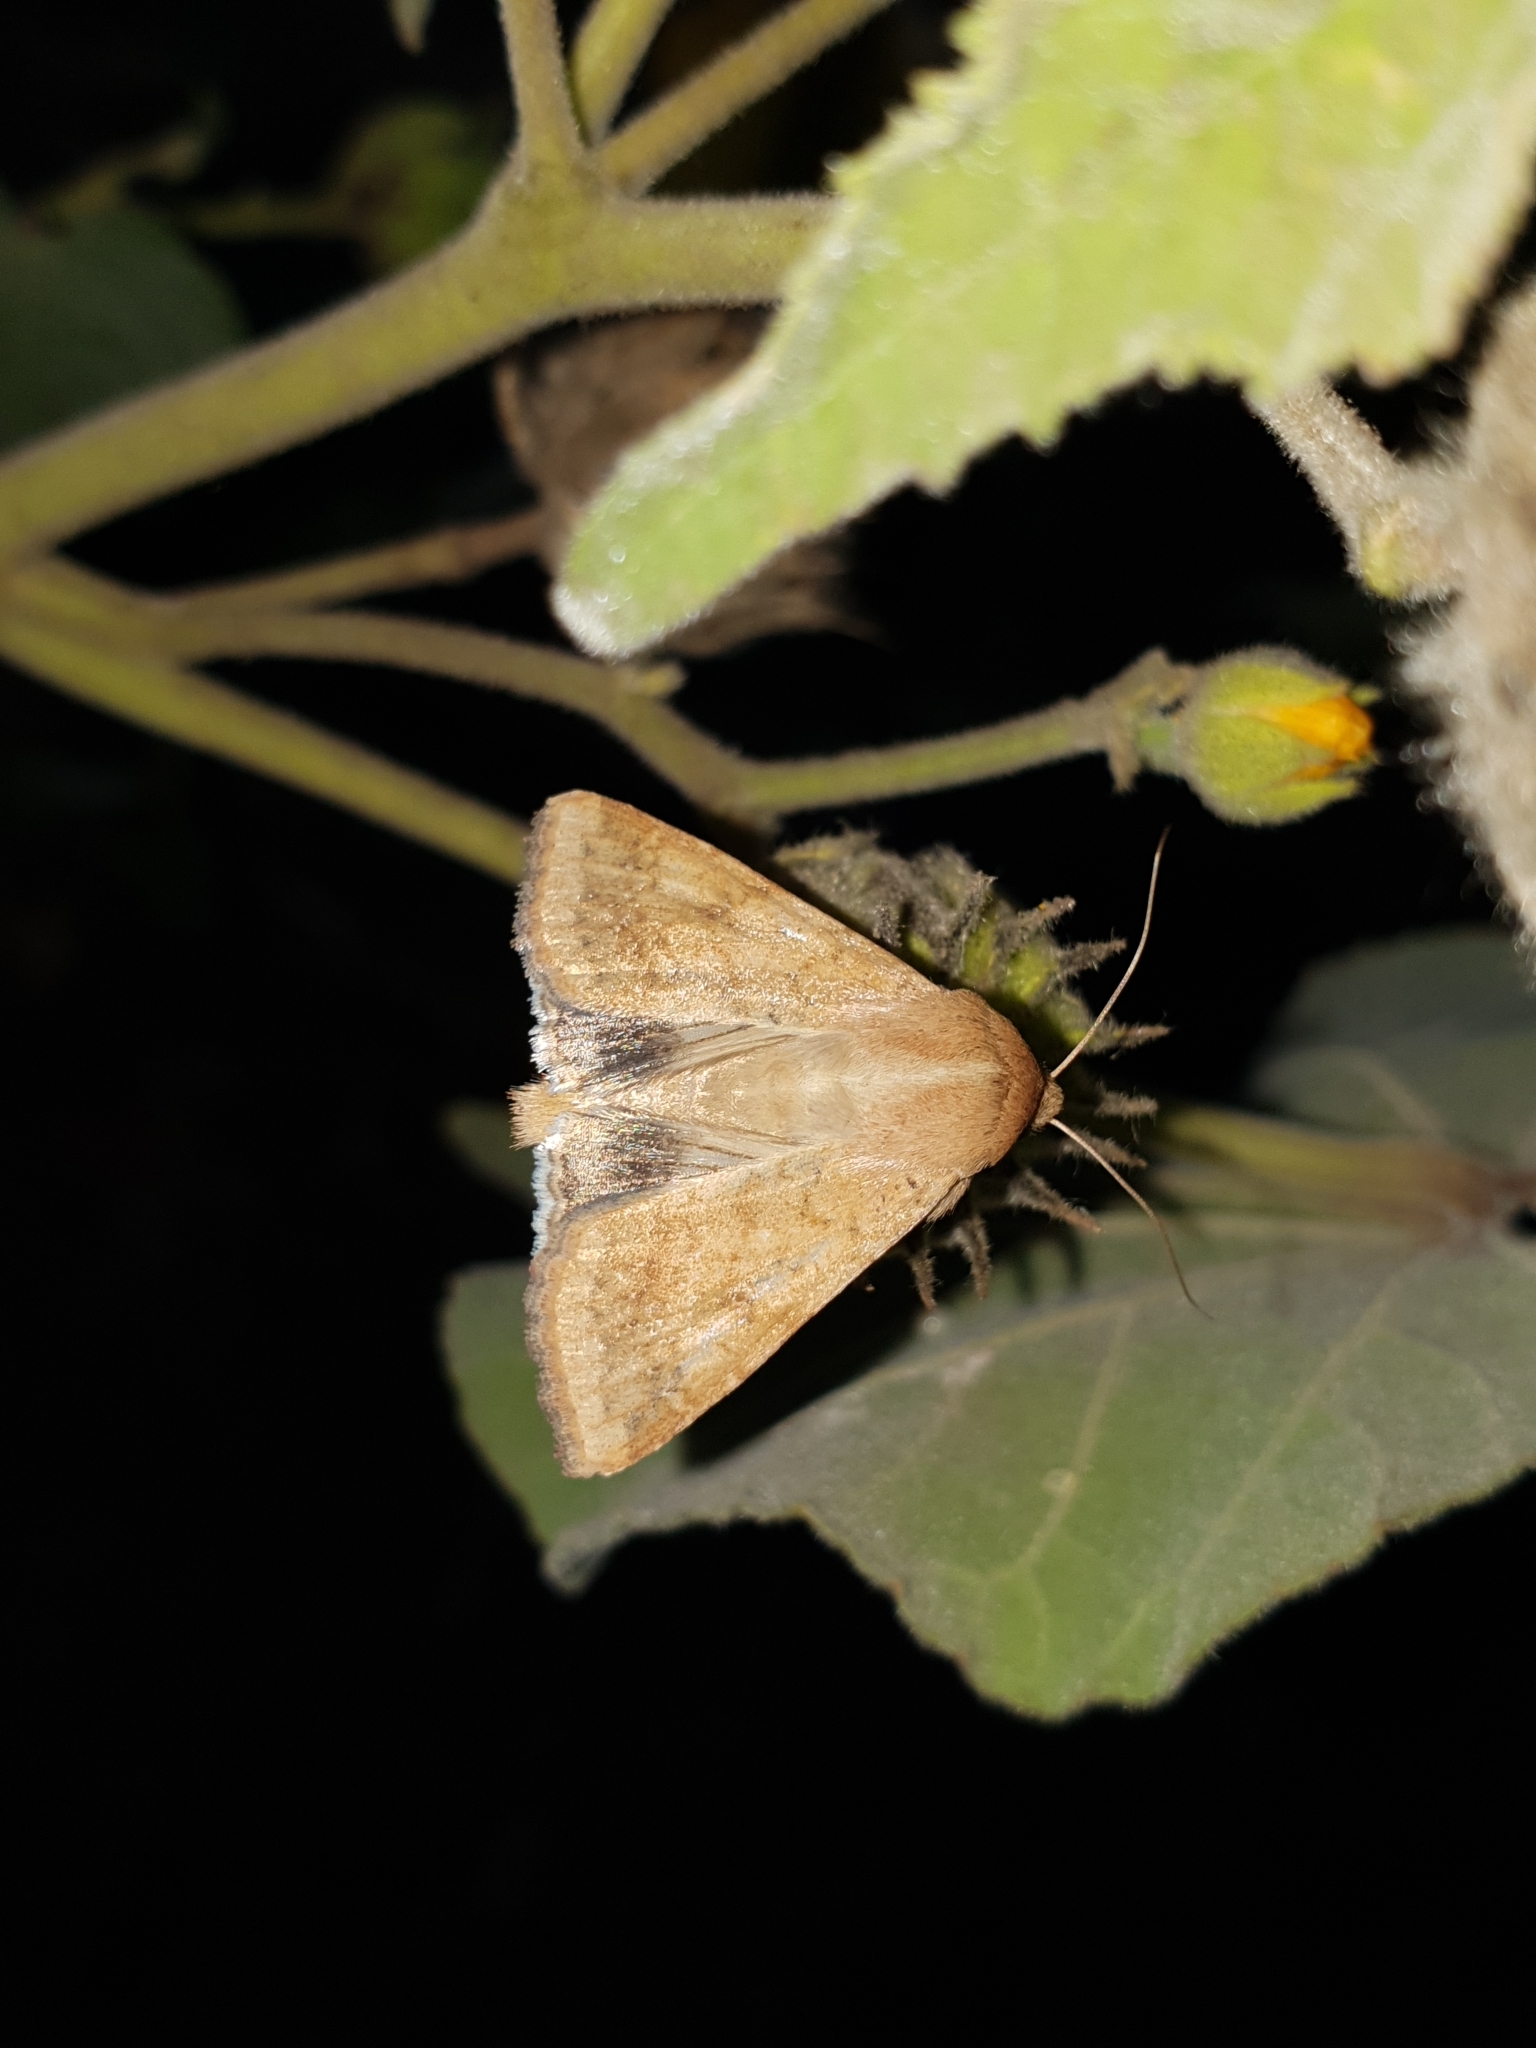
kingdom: Animalia
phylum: Arthropoda
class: Insecta
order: Lepidoptera
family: Noctuidae
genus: Helicoverpa
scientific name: Helicoverpa armigera
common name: Cotton bollworm
